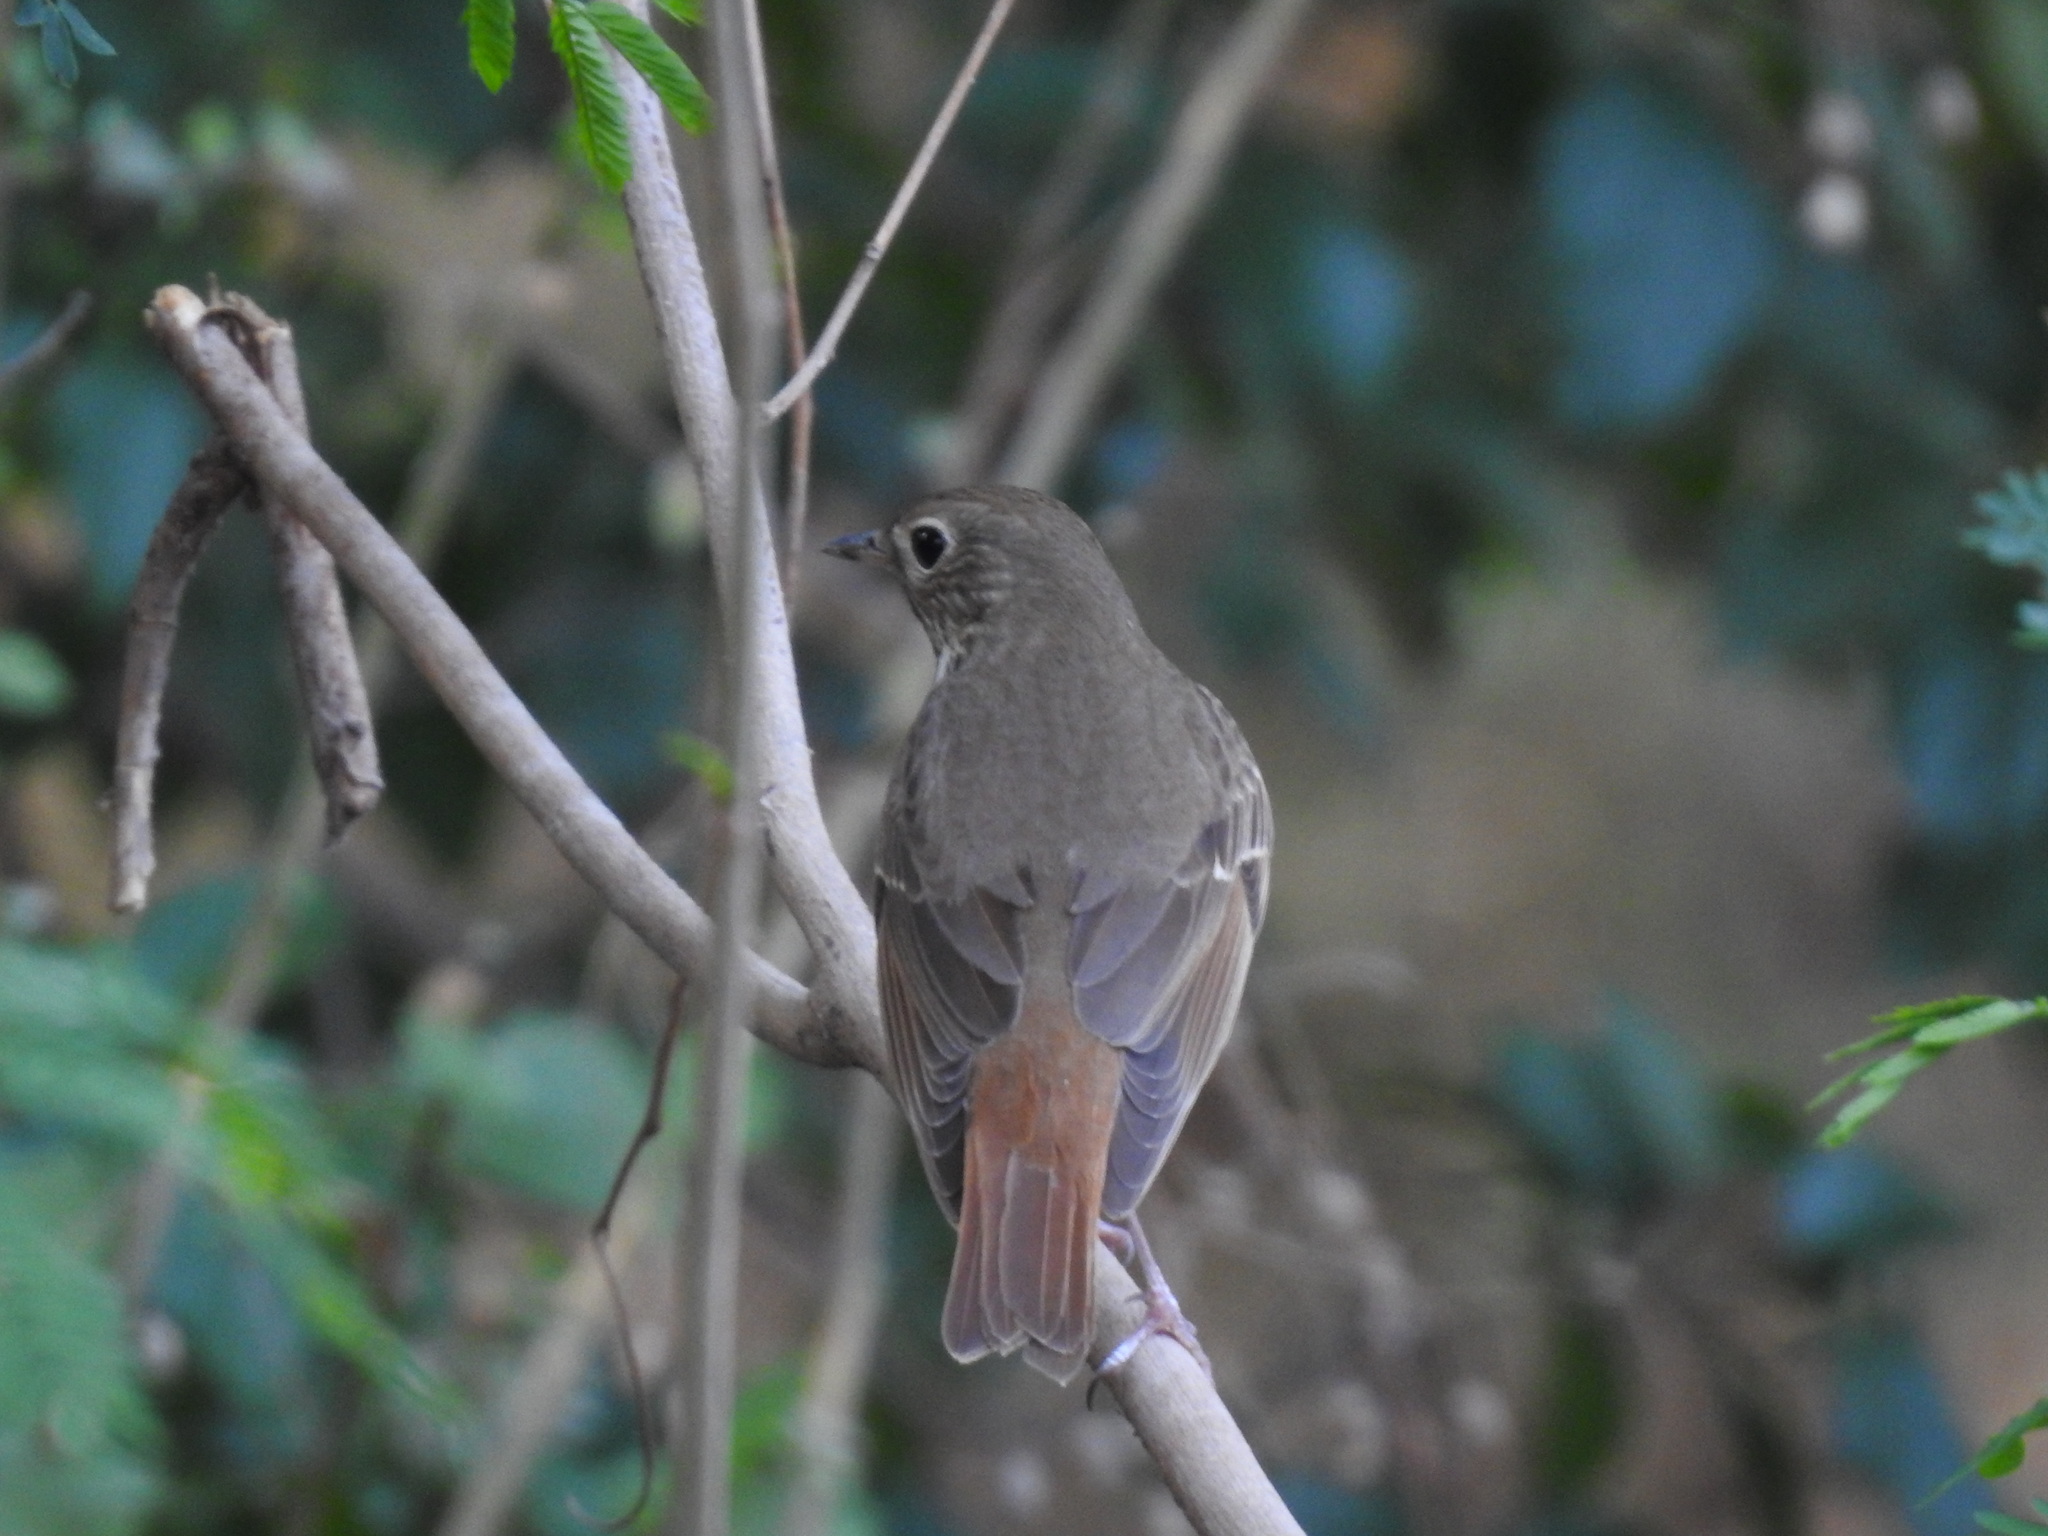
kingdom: Animalia
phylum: Chordata
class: Aves
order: Passeriformes
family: Turdidae
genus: Catharus
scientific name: Catharus guttatus
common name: Hermit thrush
